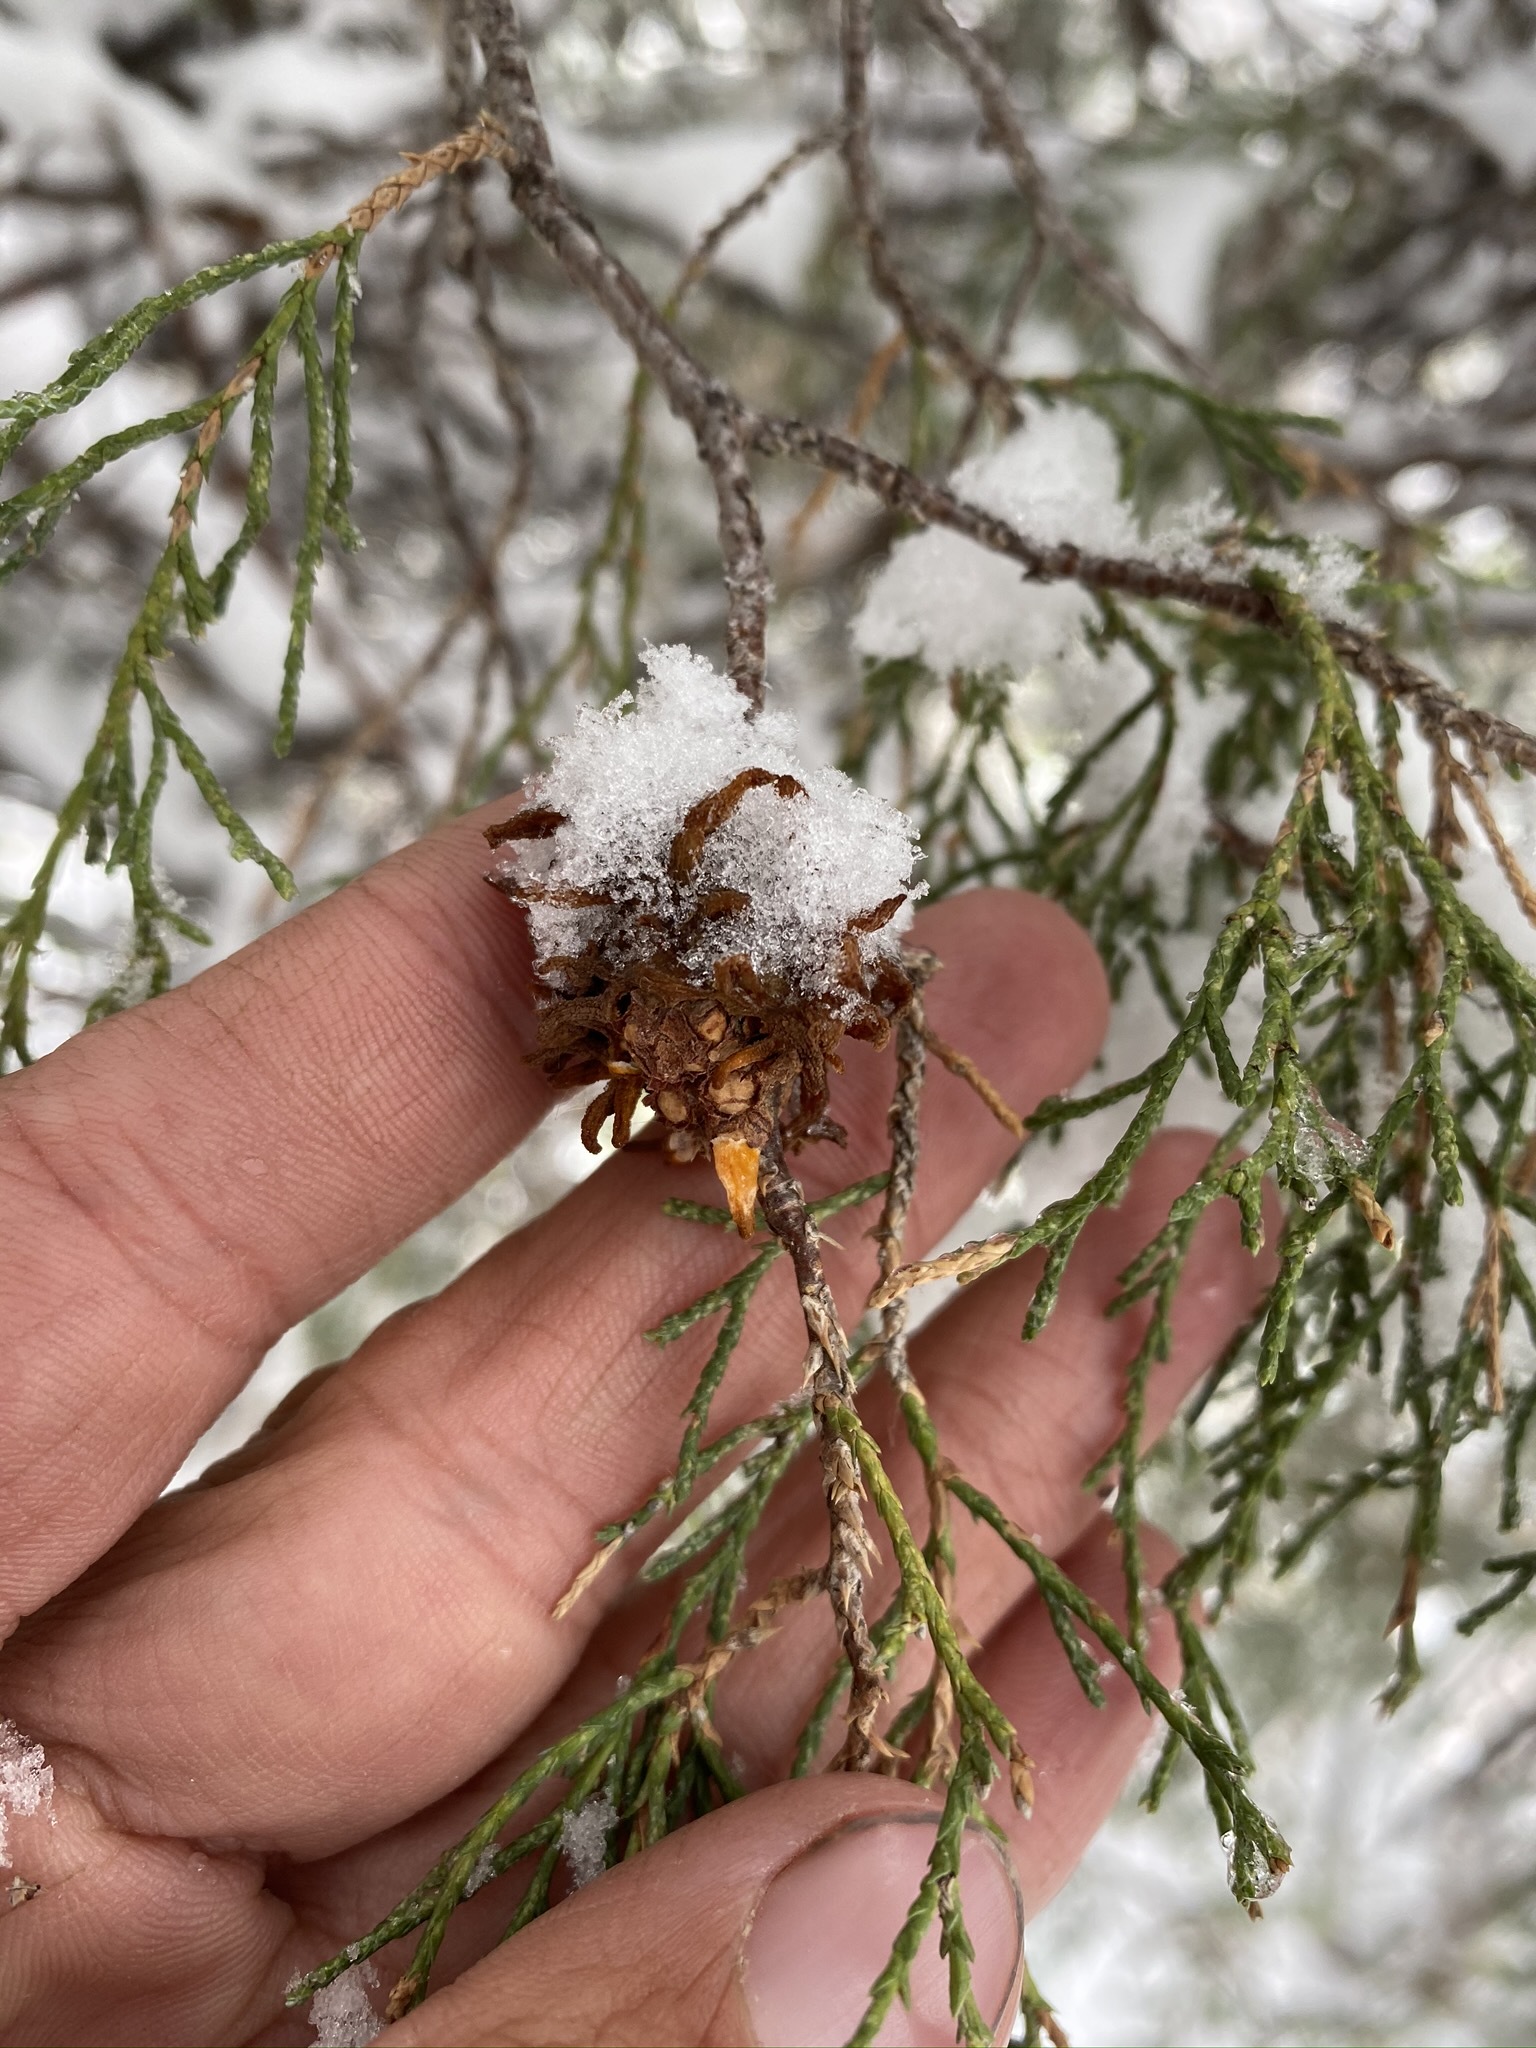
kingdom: Fungi
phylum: Basidiomycota
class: Pucciniomycetes
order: Pucciniales
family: Gymnosporangiaceae
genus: Gymnosporangium
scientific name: Gymnosporangium juniperi-virginianae
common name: Juniper-apple rust
